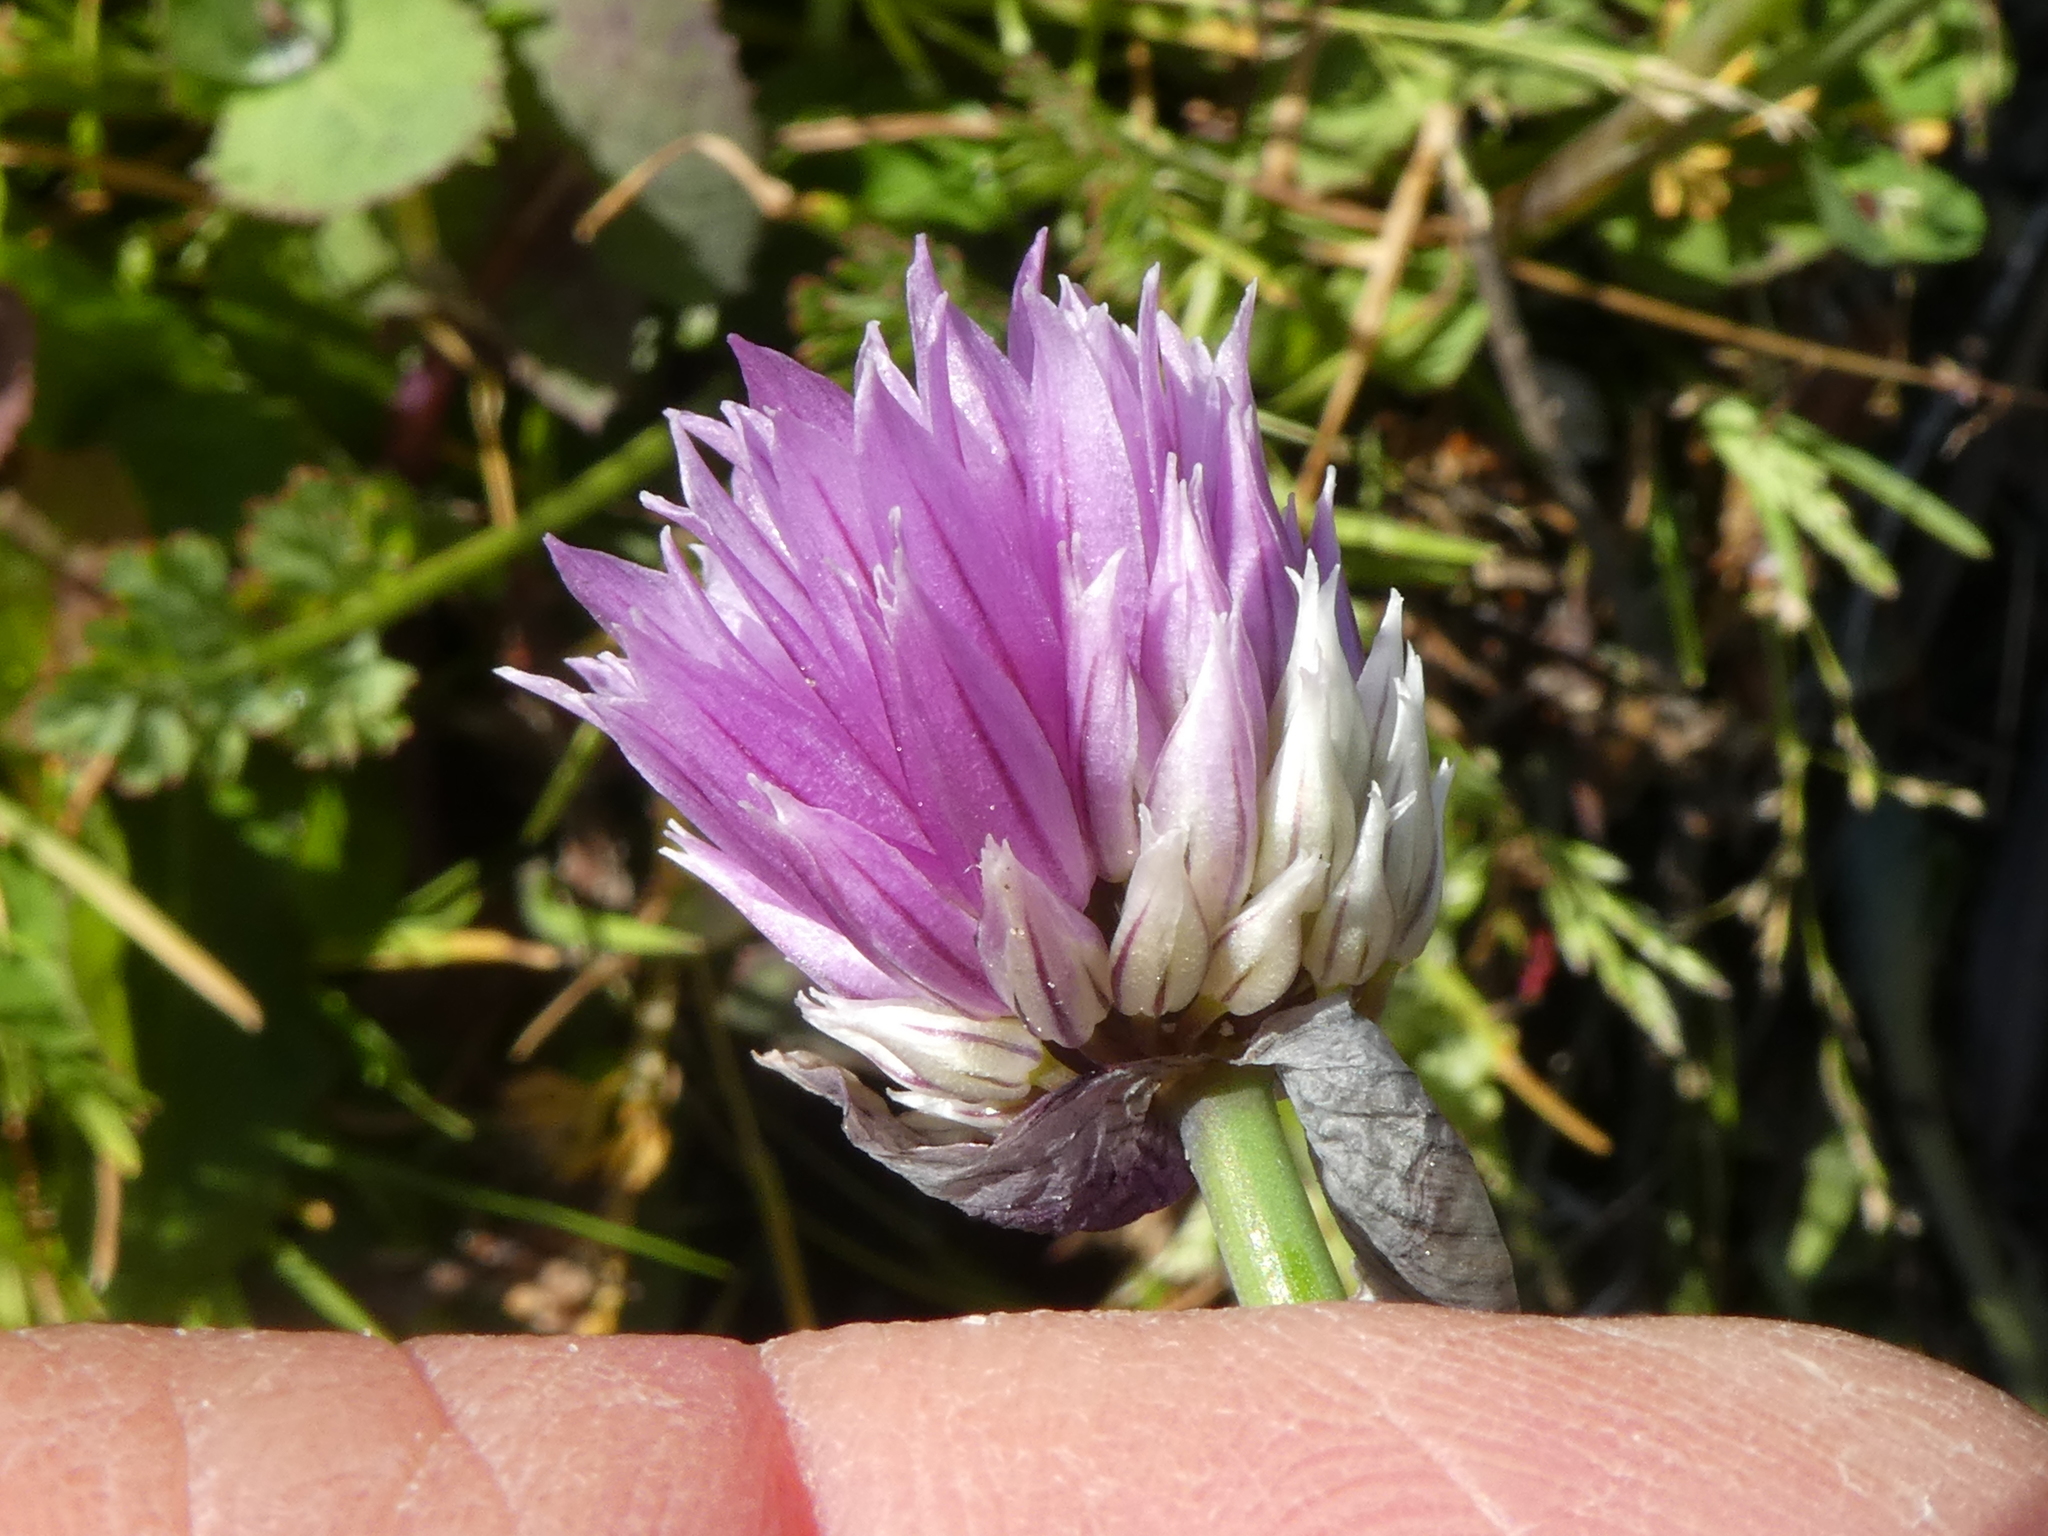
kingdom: Plantae
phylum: Tracheophyta
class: Liliopsida
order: Asparagales
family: Amaryllidaceae
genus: Allium
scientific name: Allium schoenoprasum
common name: Chives
